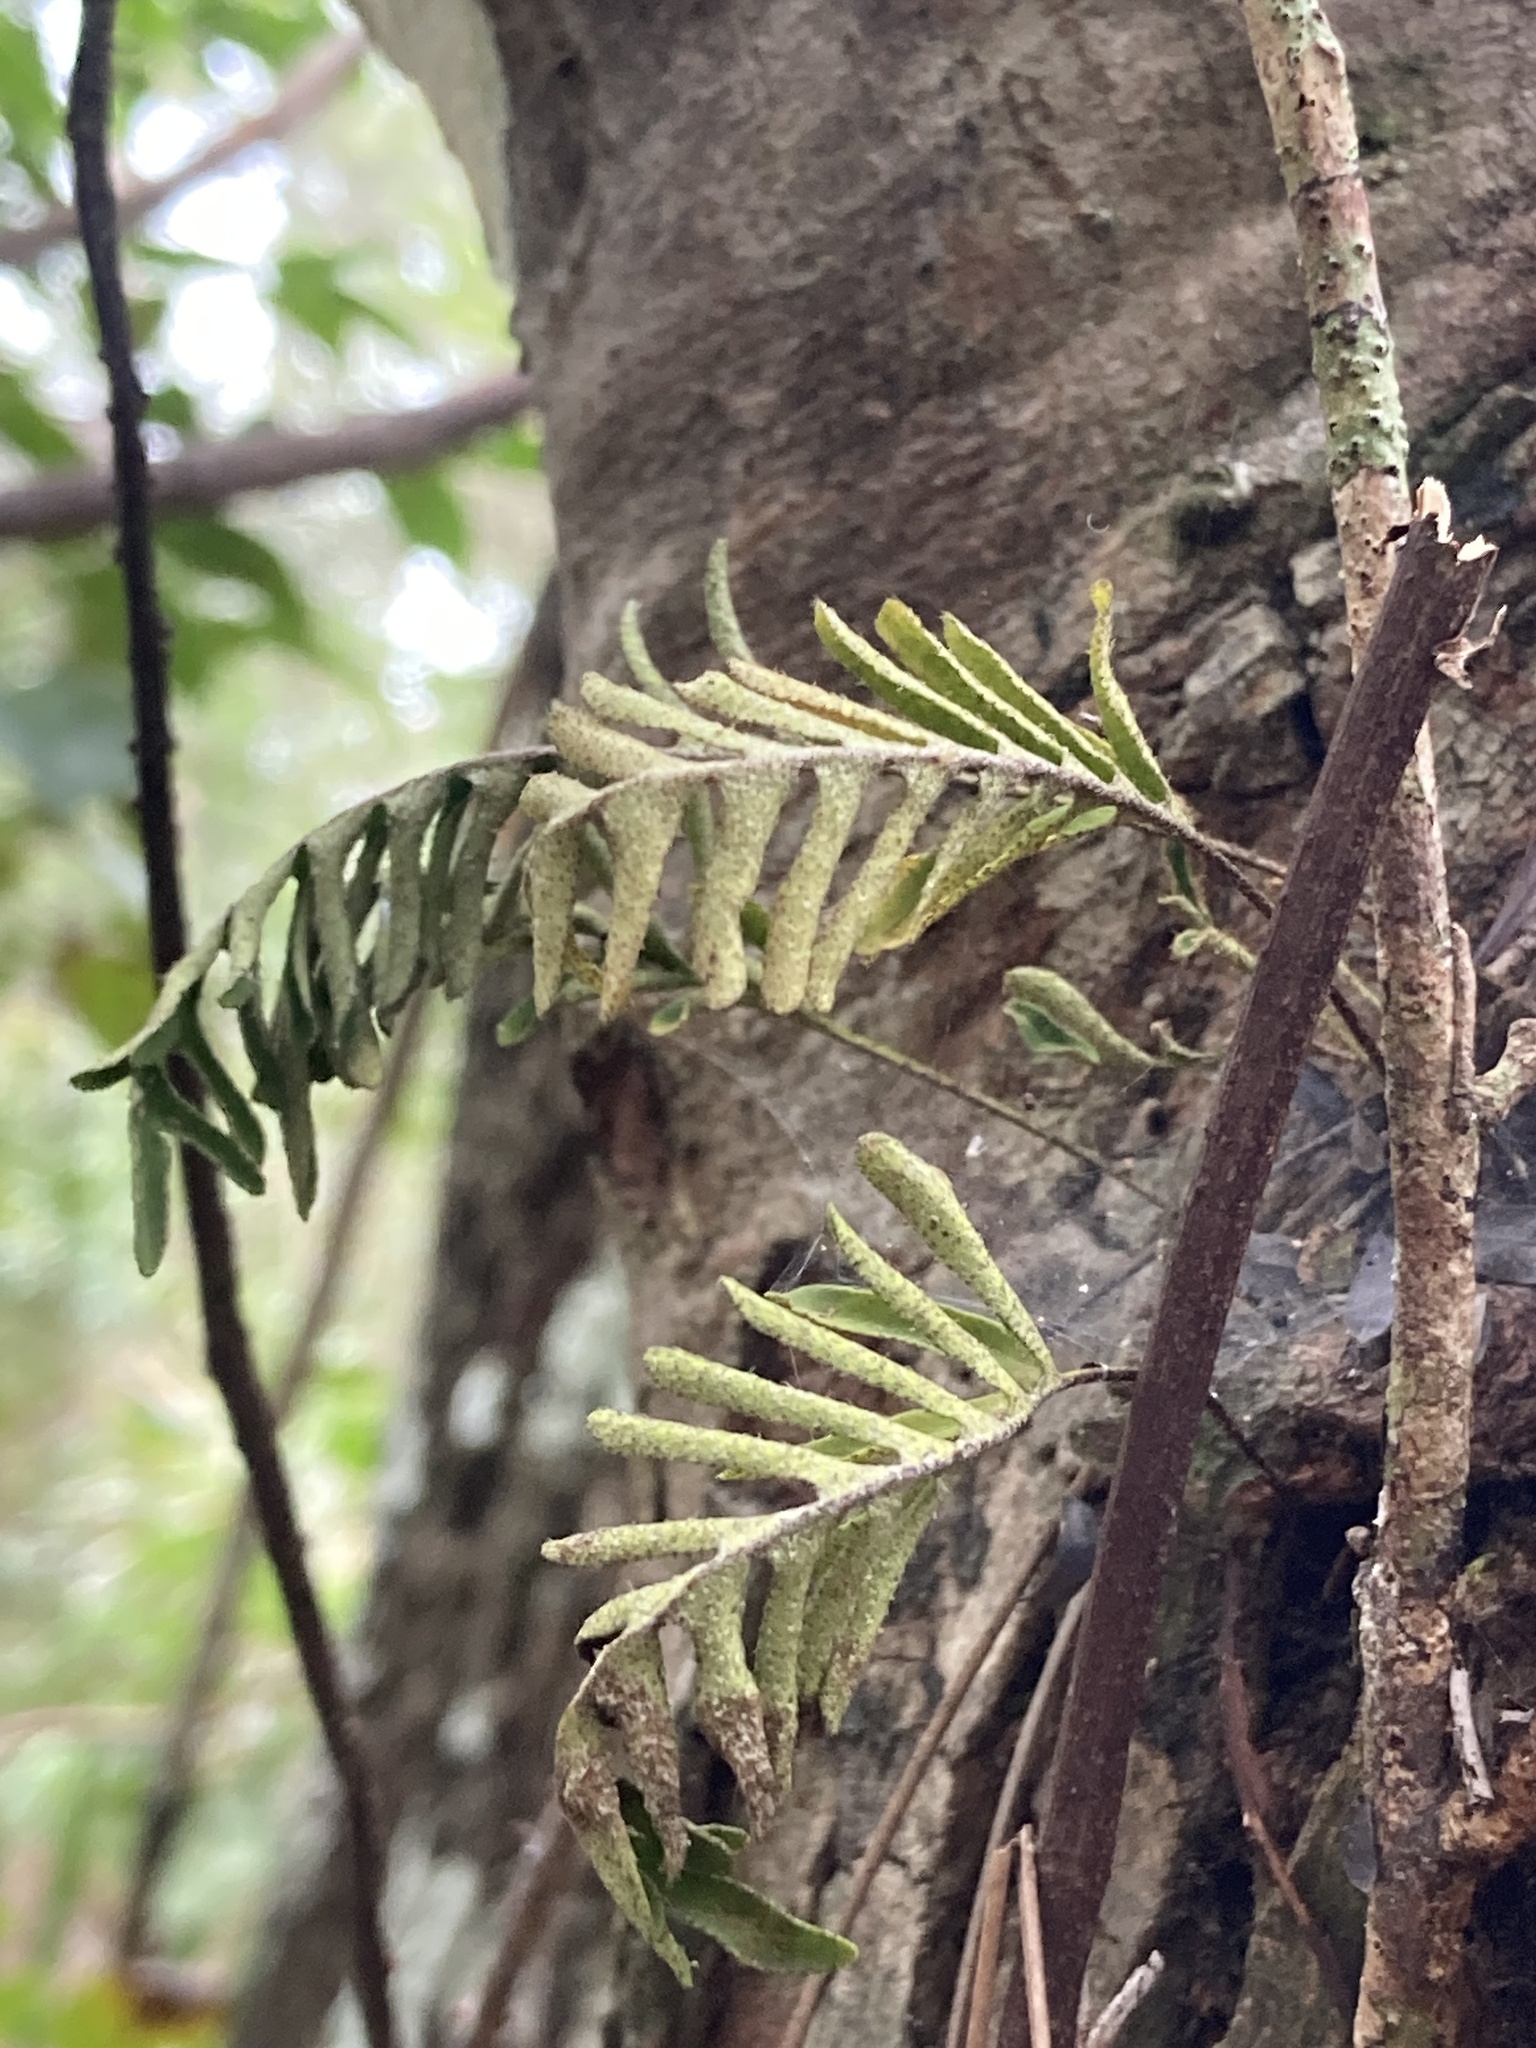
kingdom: Plantae
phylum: Tracheophyta
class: Polypodiopsida
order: Polypodiales
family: Polypodiaceae
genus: Pleopeltis
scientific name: Pleopeltis michauxiana
